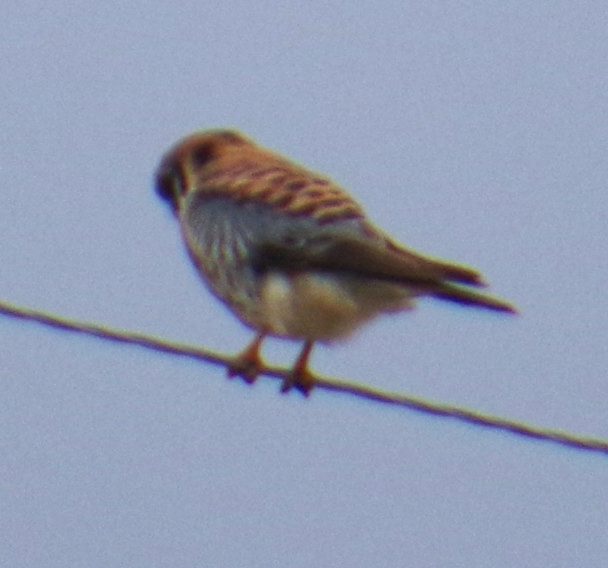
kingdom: Animalia
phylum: Chordata
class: Aves
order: Falconiformes
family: Falconidae
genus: Falco
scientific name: Falco sparverius
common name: American kestrel
